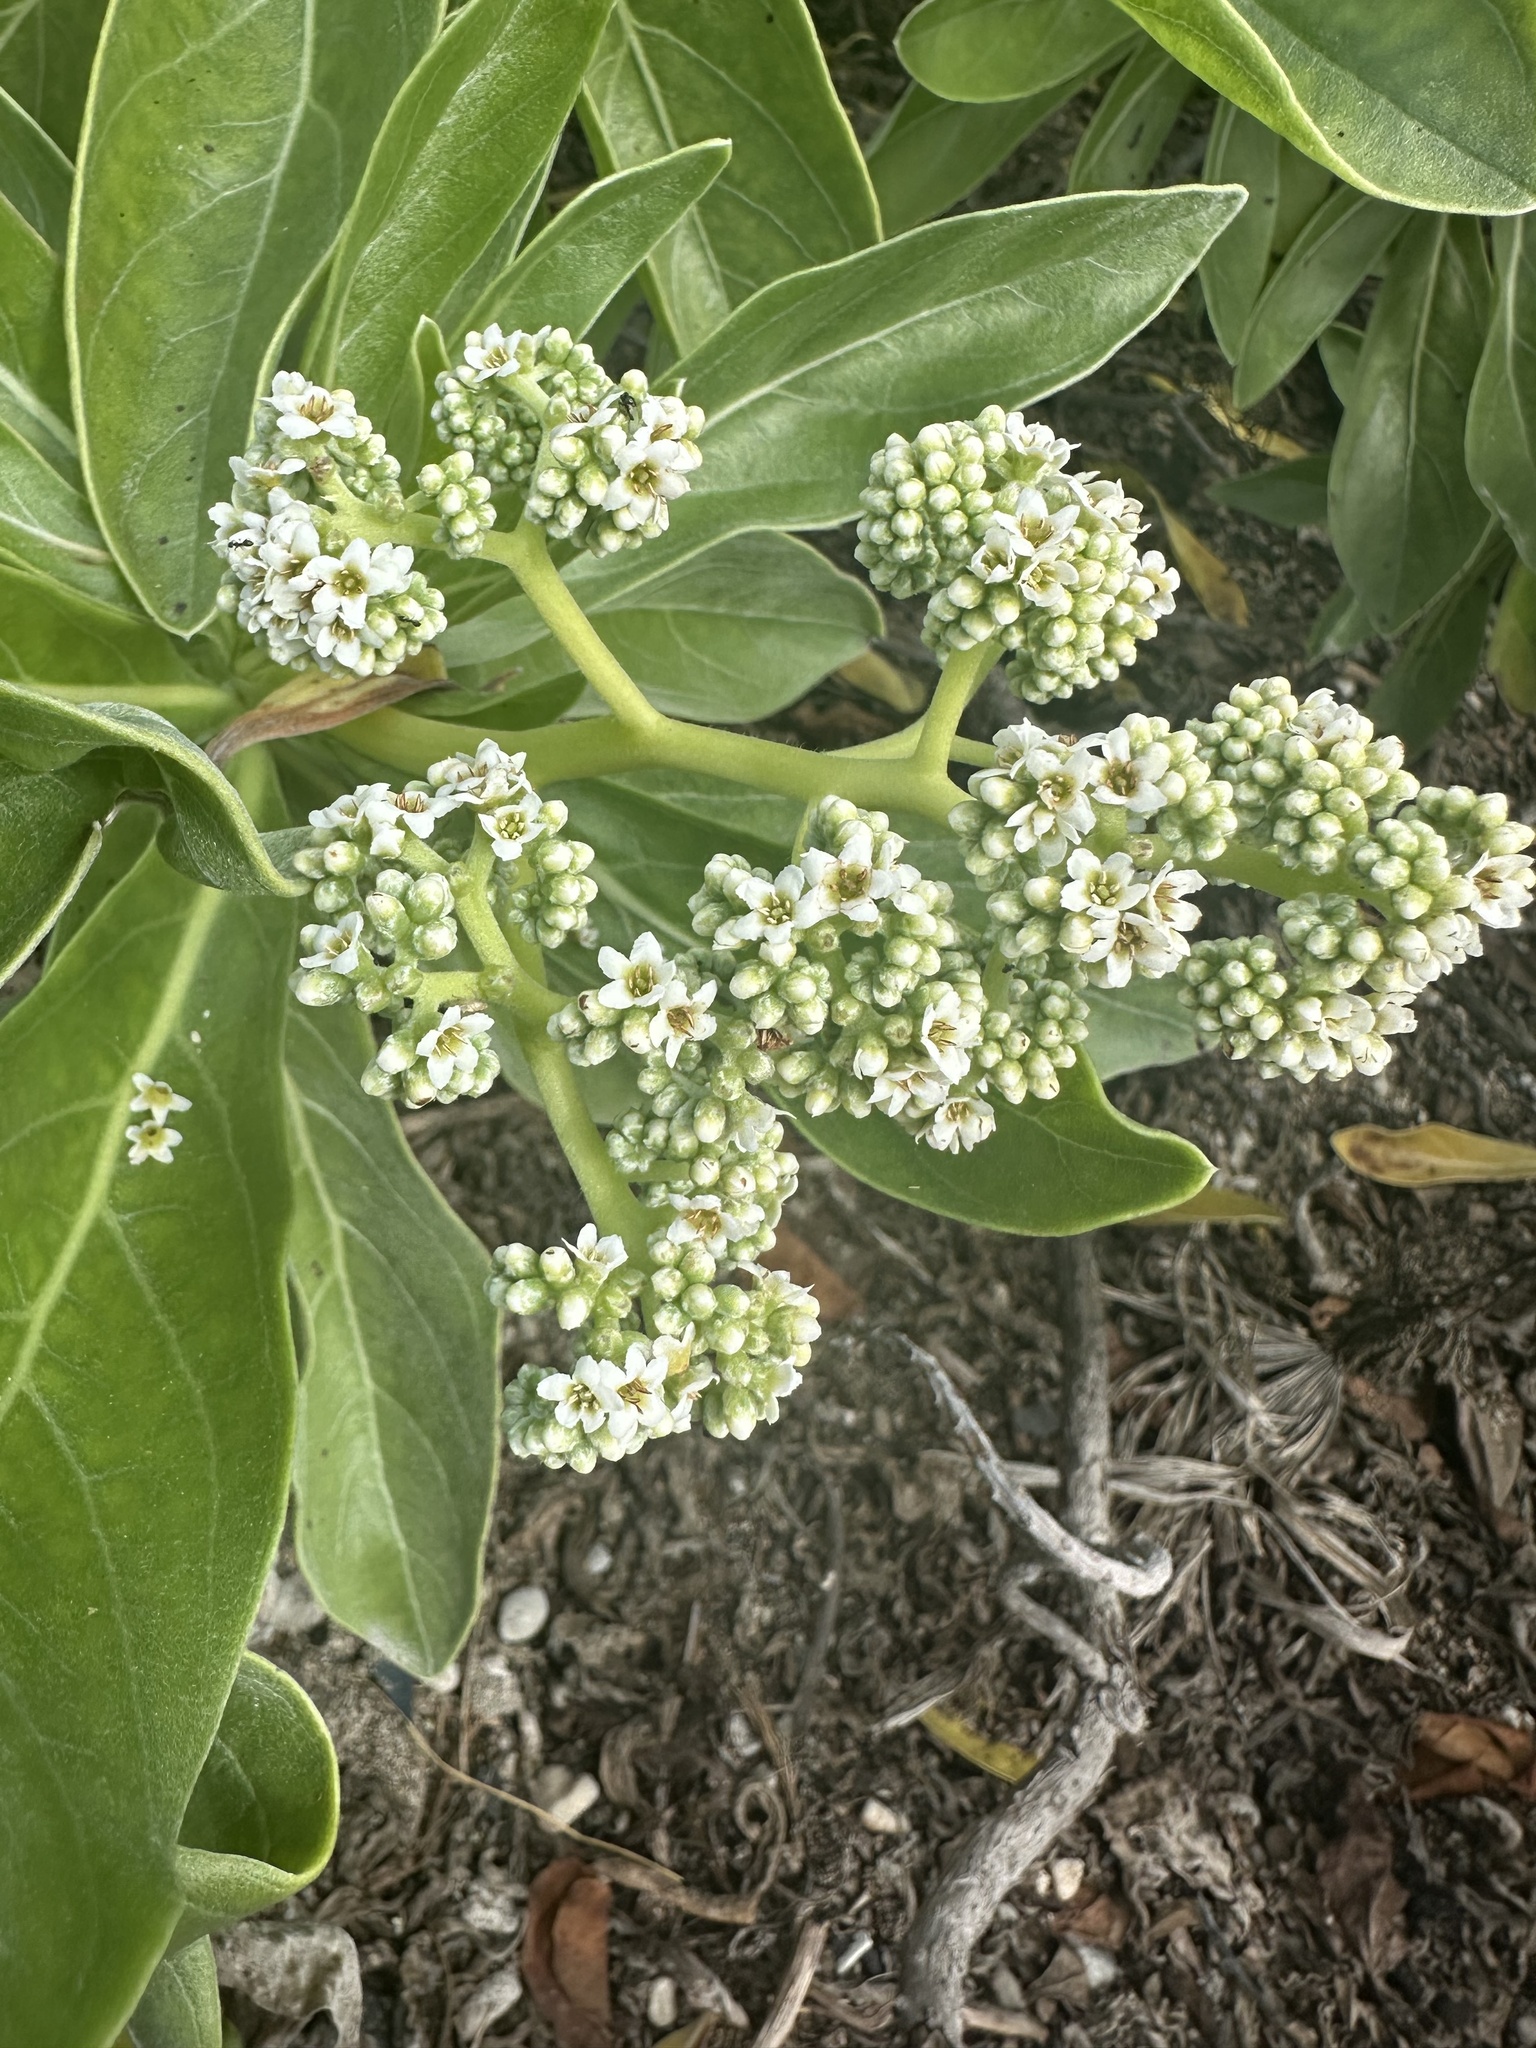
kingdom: Plantae
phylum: Tracheophyta
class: Magnoliopsida
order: Boraginales
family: Heliotropiaceae
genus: Heliotropium
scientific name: Heliotropium velutinum
